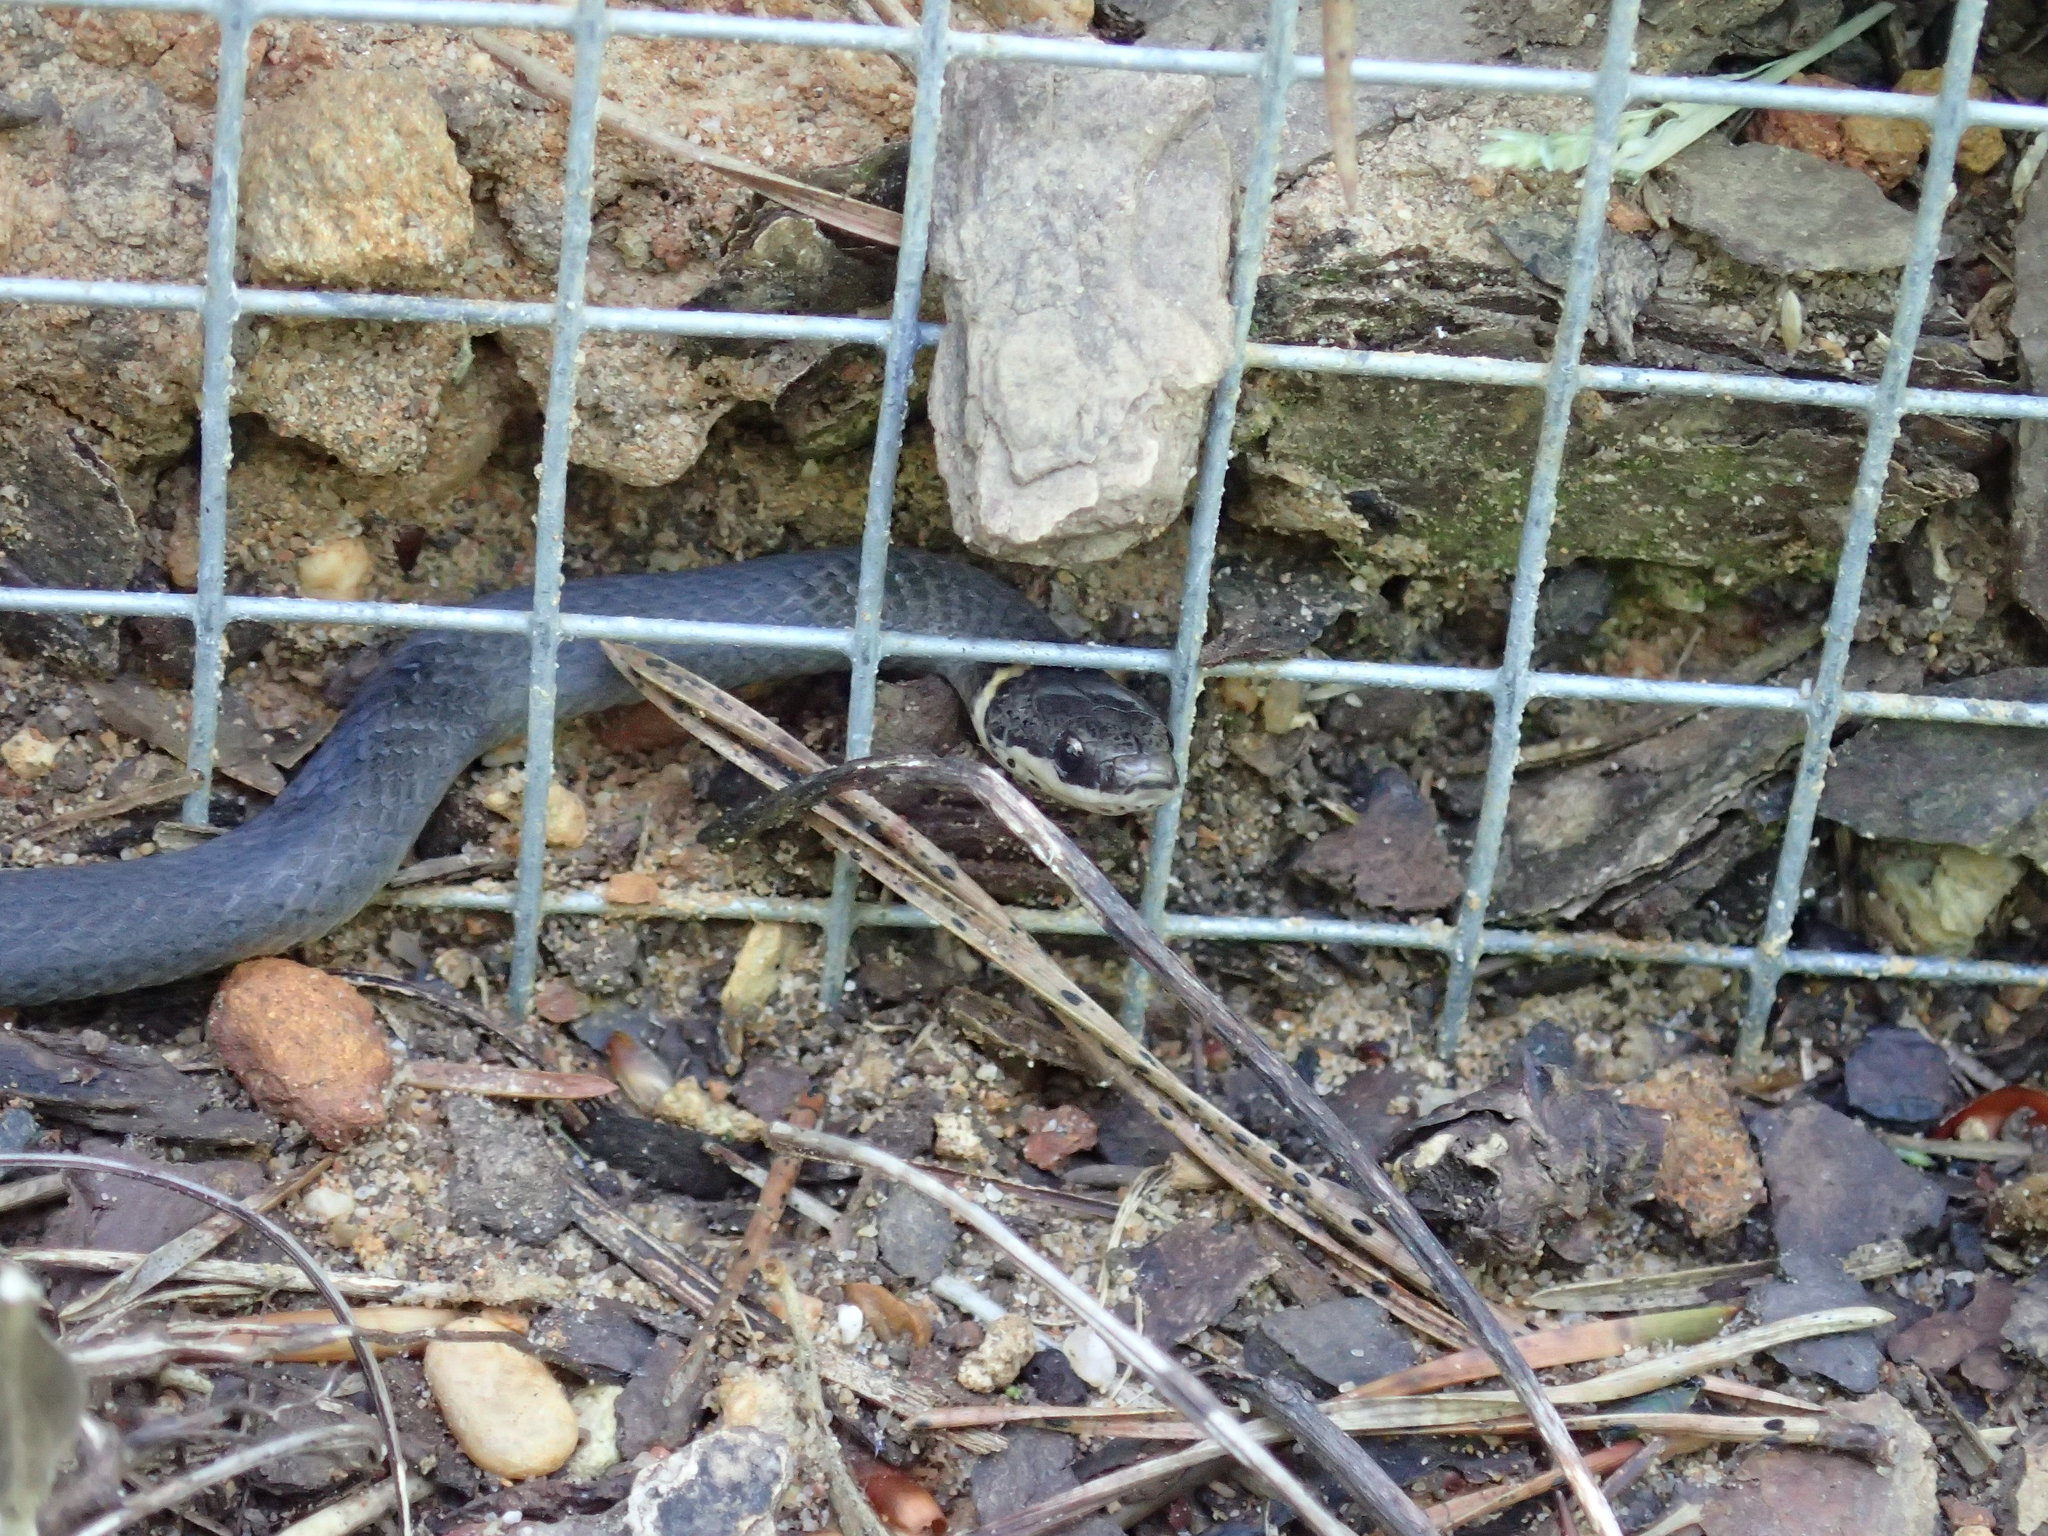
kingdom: Animalia
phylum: Chordata
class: Squamata
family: Colubridae
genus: Diadophis
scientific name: Diadophis punctatus
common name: Ringneck snake
